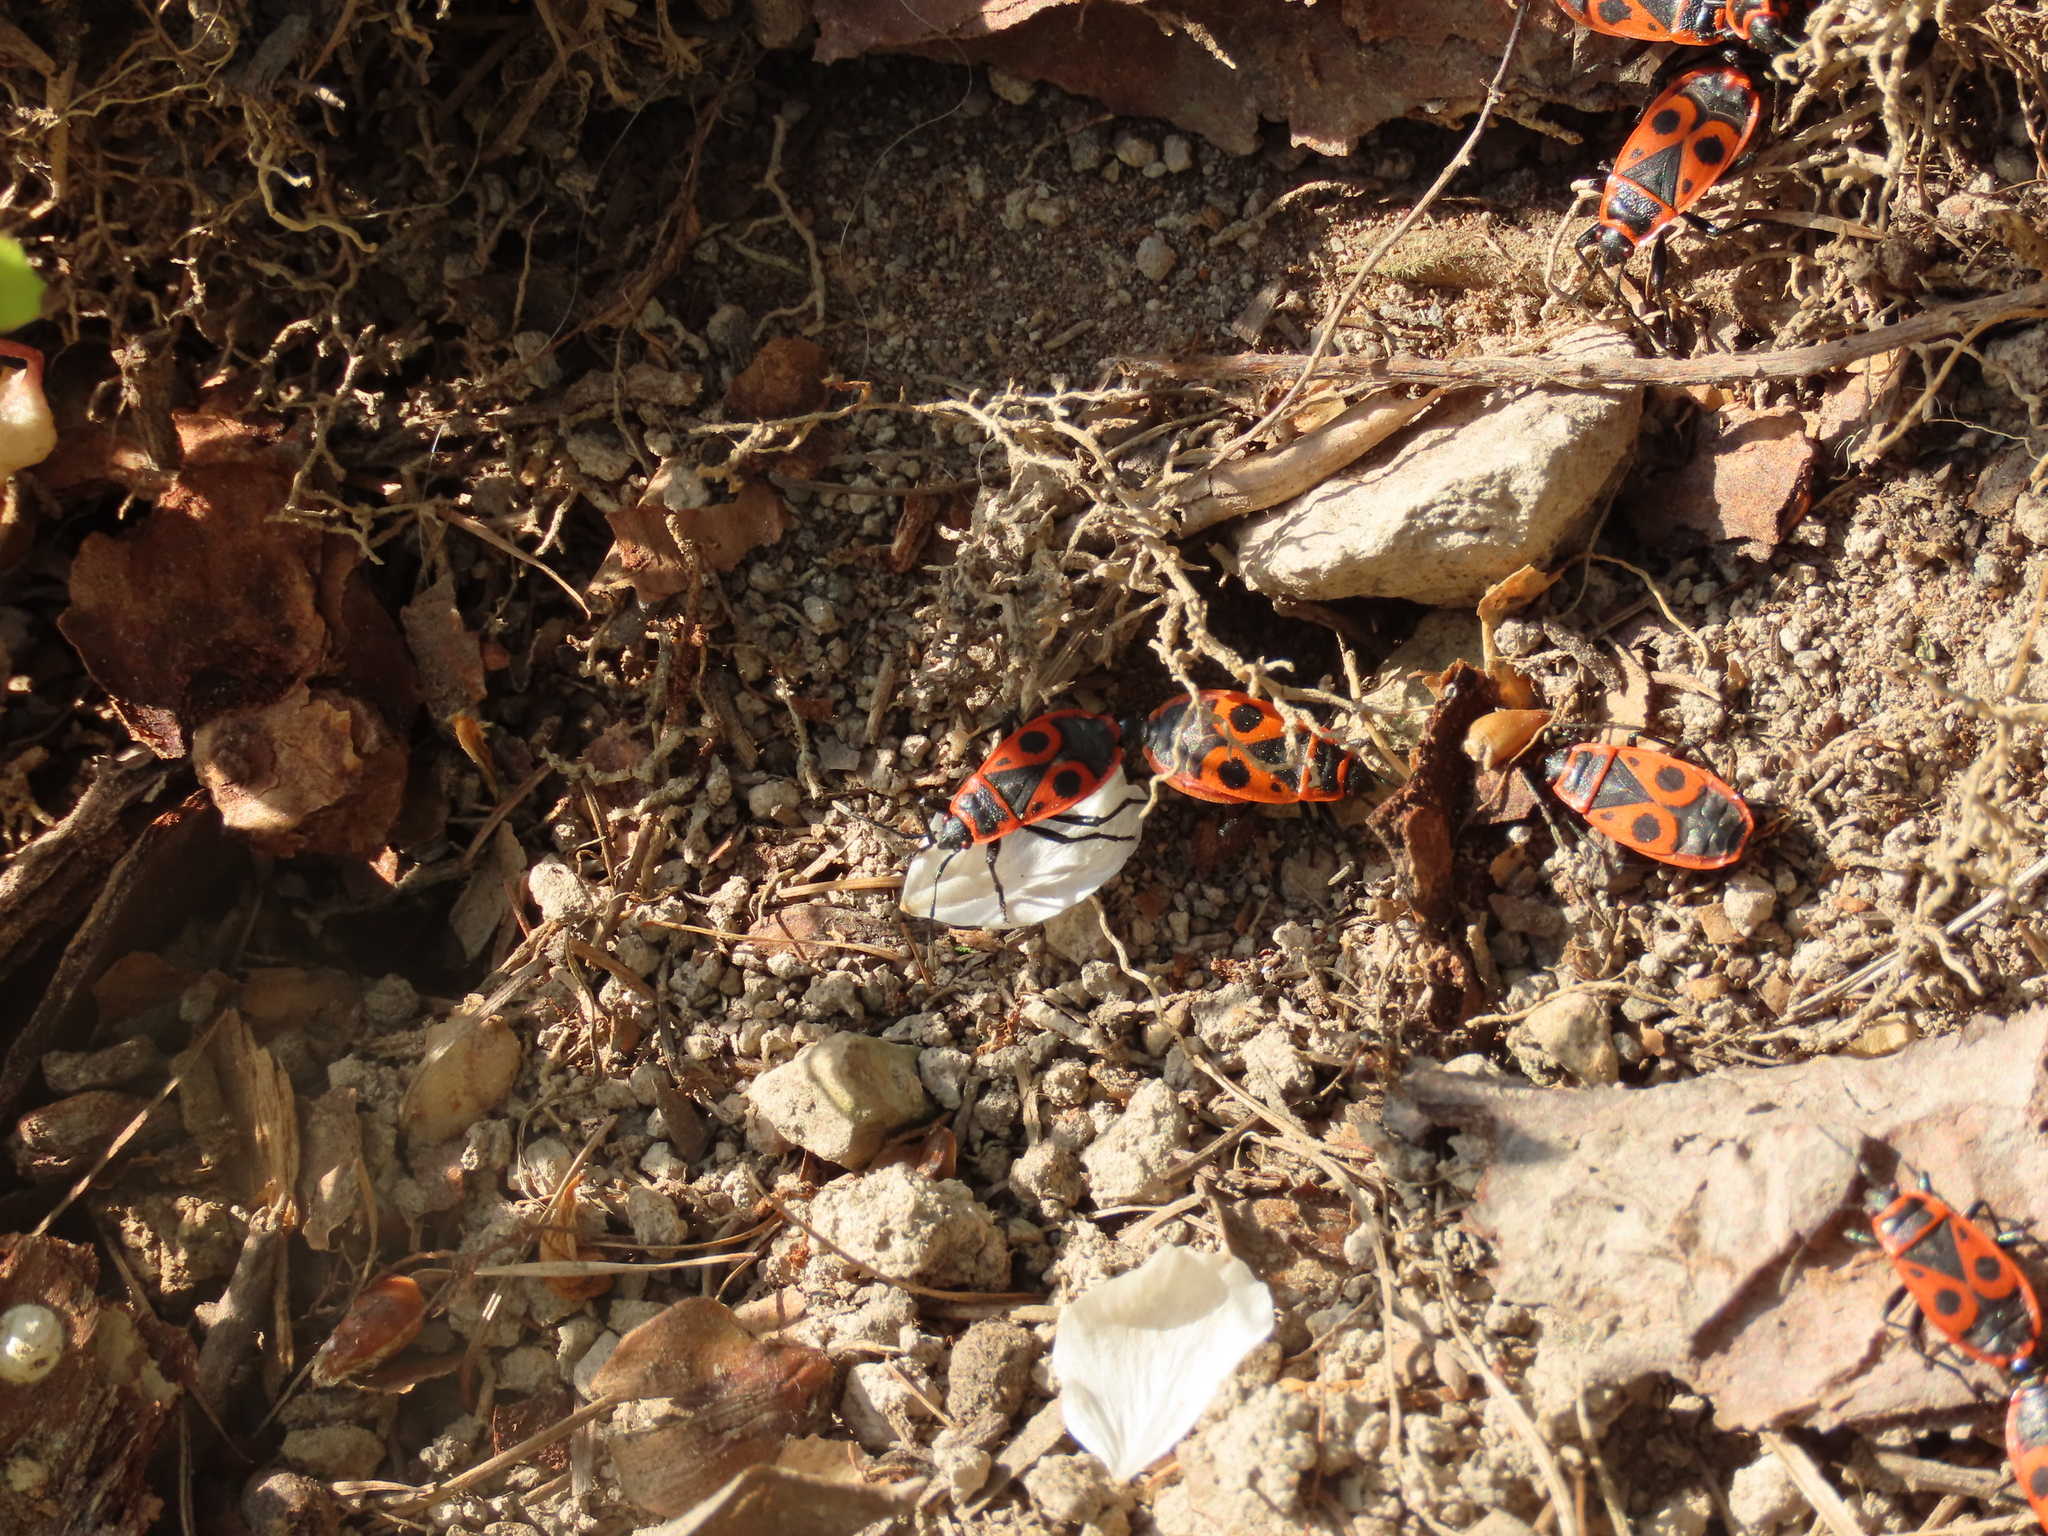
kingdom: Animalia
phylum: Arthropoda
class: Insecta
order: Hemiptera
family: Pyrrhocoridae
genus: Pyrrhocoris
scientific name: Pyrrhocoris apterus
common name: Firebug
